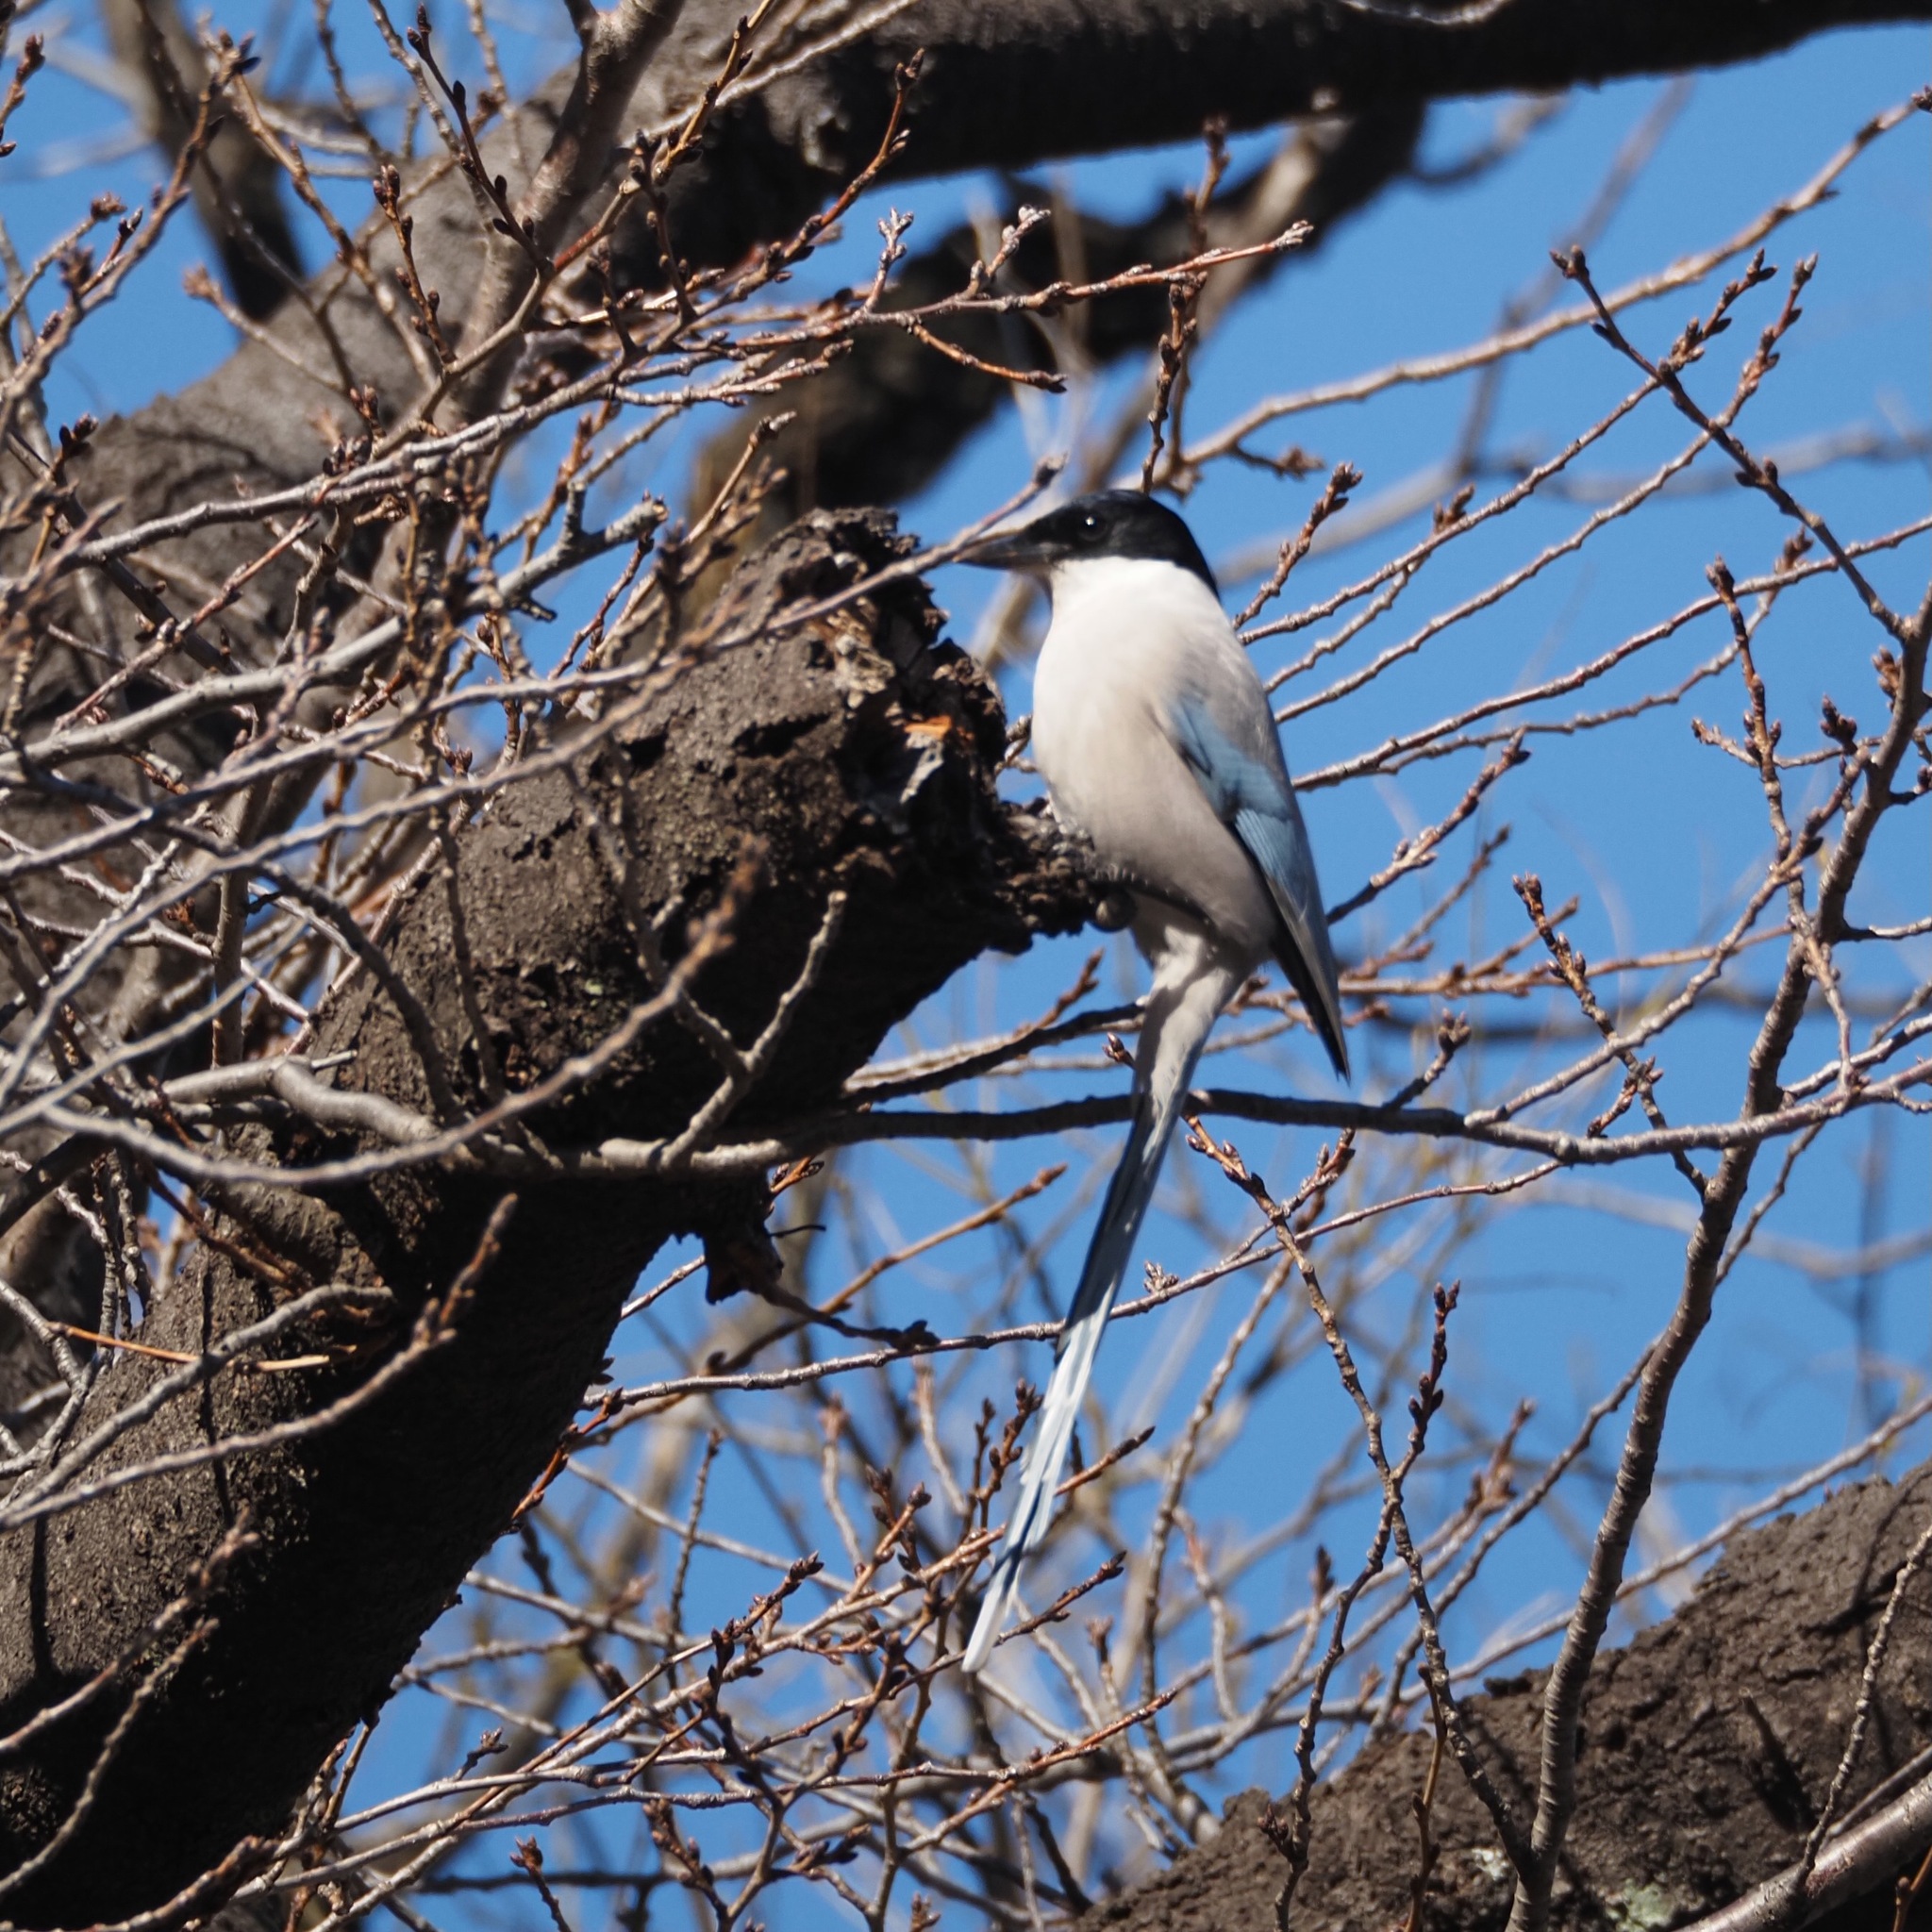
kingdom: Animalia
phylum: Chordata
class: Aves
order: Passeriformes
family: Corvidae
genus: Cyanopica
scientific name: Cyanopica cyanus
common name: Azure-winged magpie
